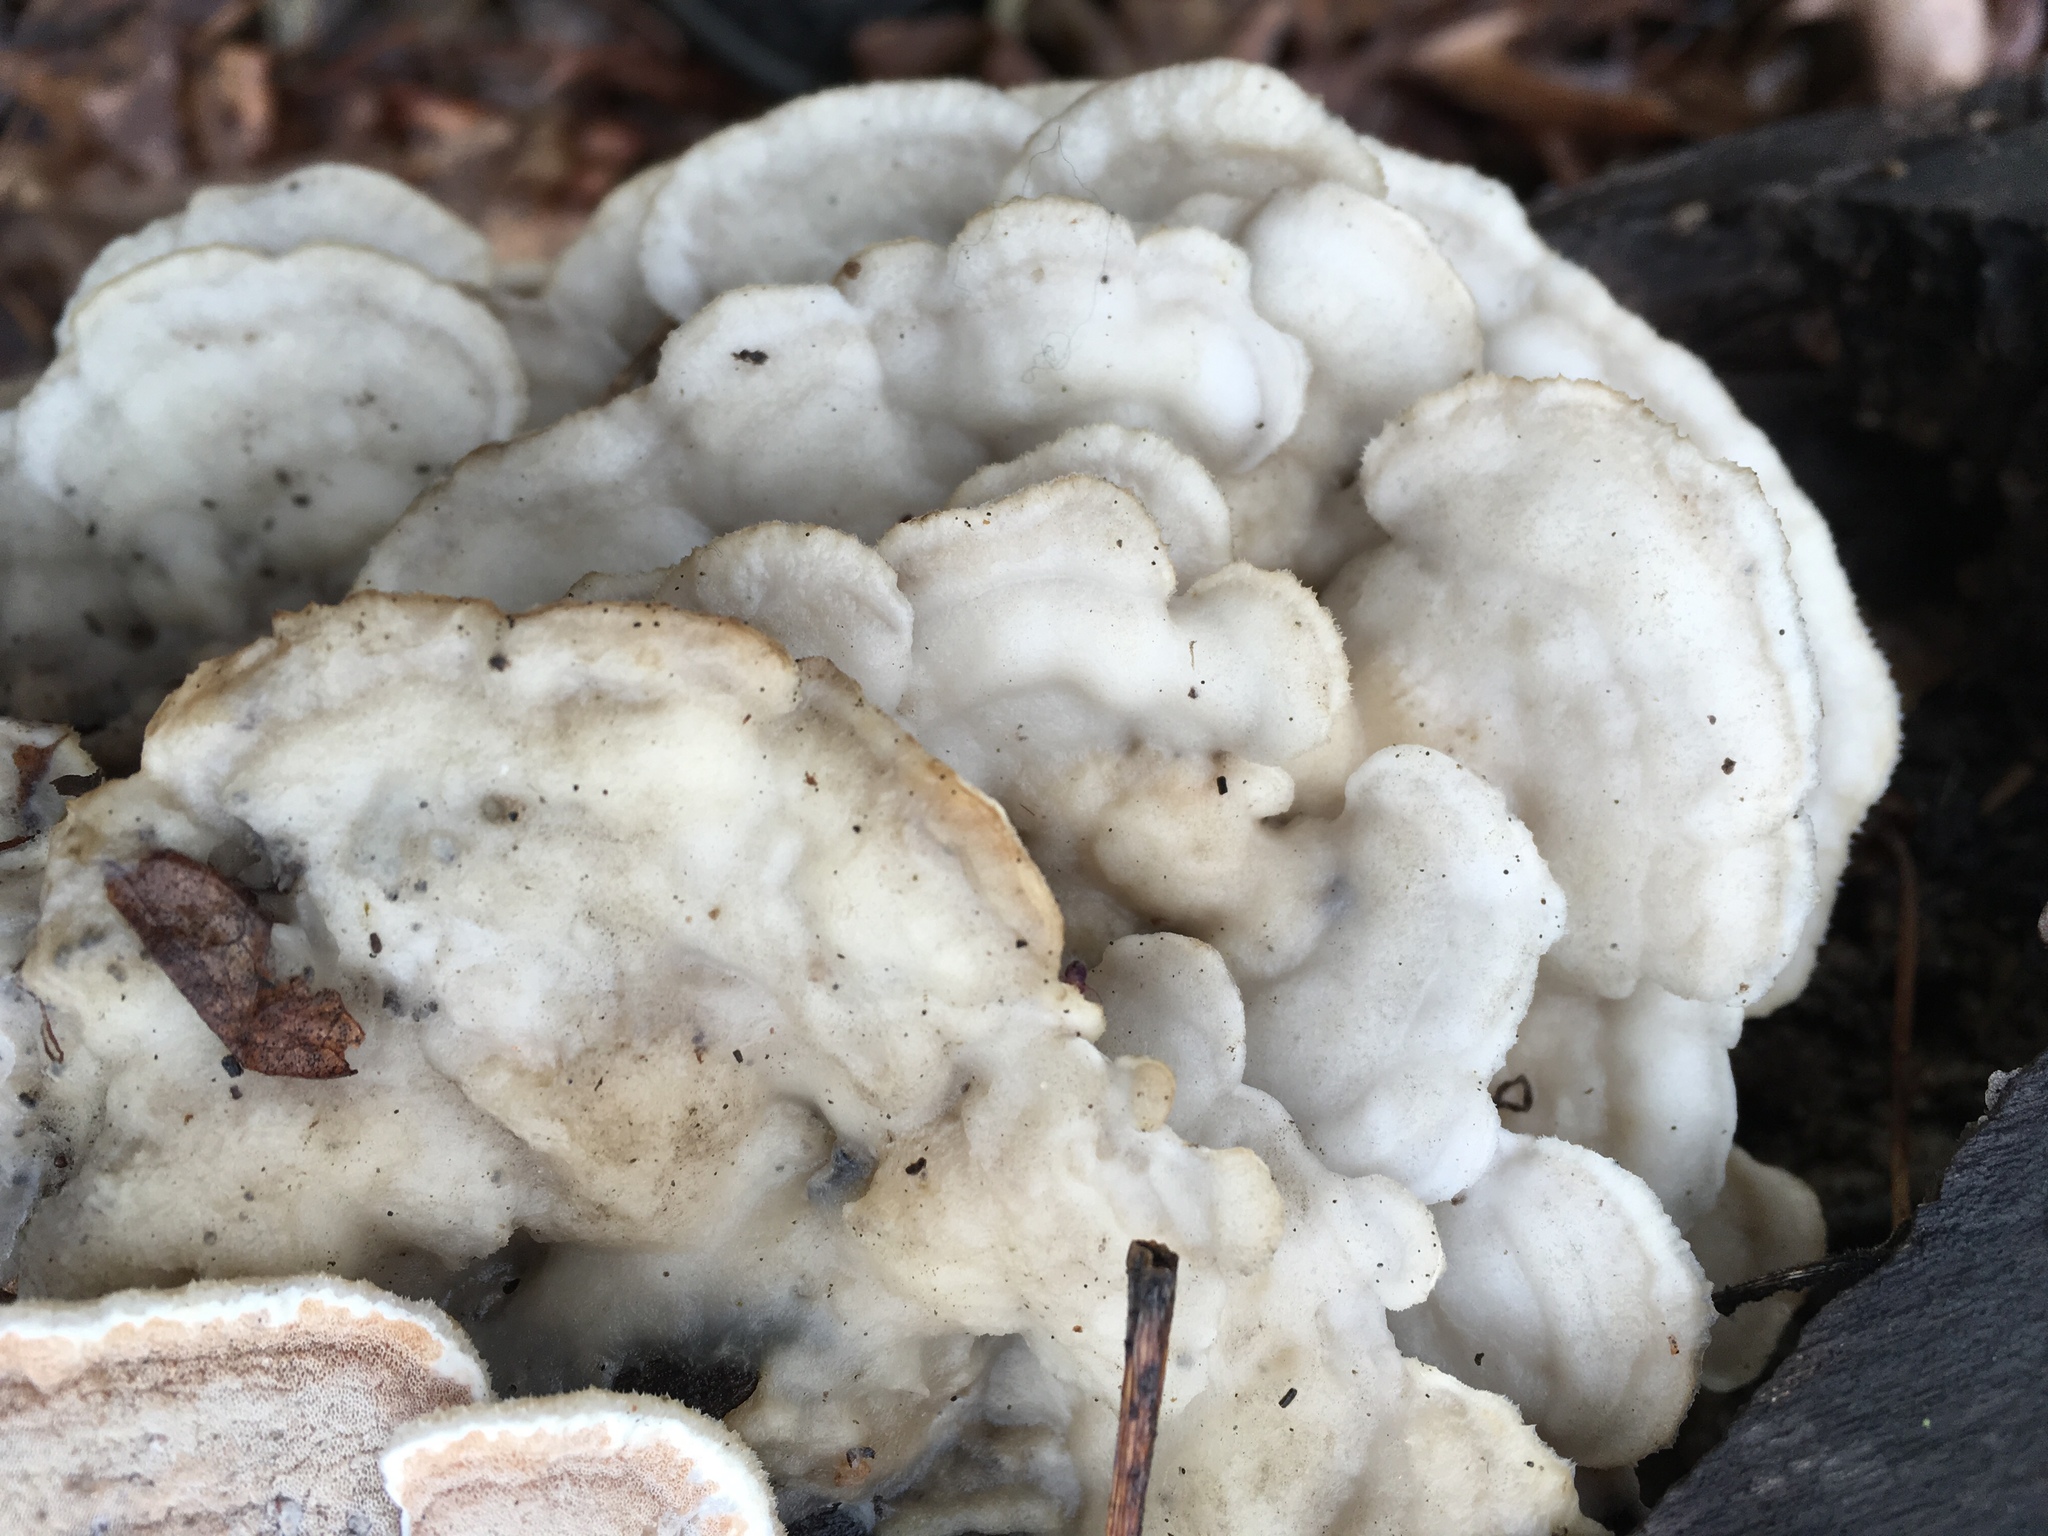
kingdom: Fungi
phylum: Basidiomycota
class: Agaricomycetes
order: Polyporales
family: Incrustoporiaceae
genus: Tyromyces
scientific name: Tyromyces chioneus
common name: White cheese polypore
